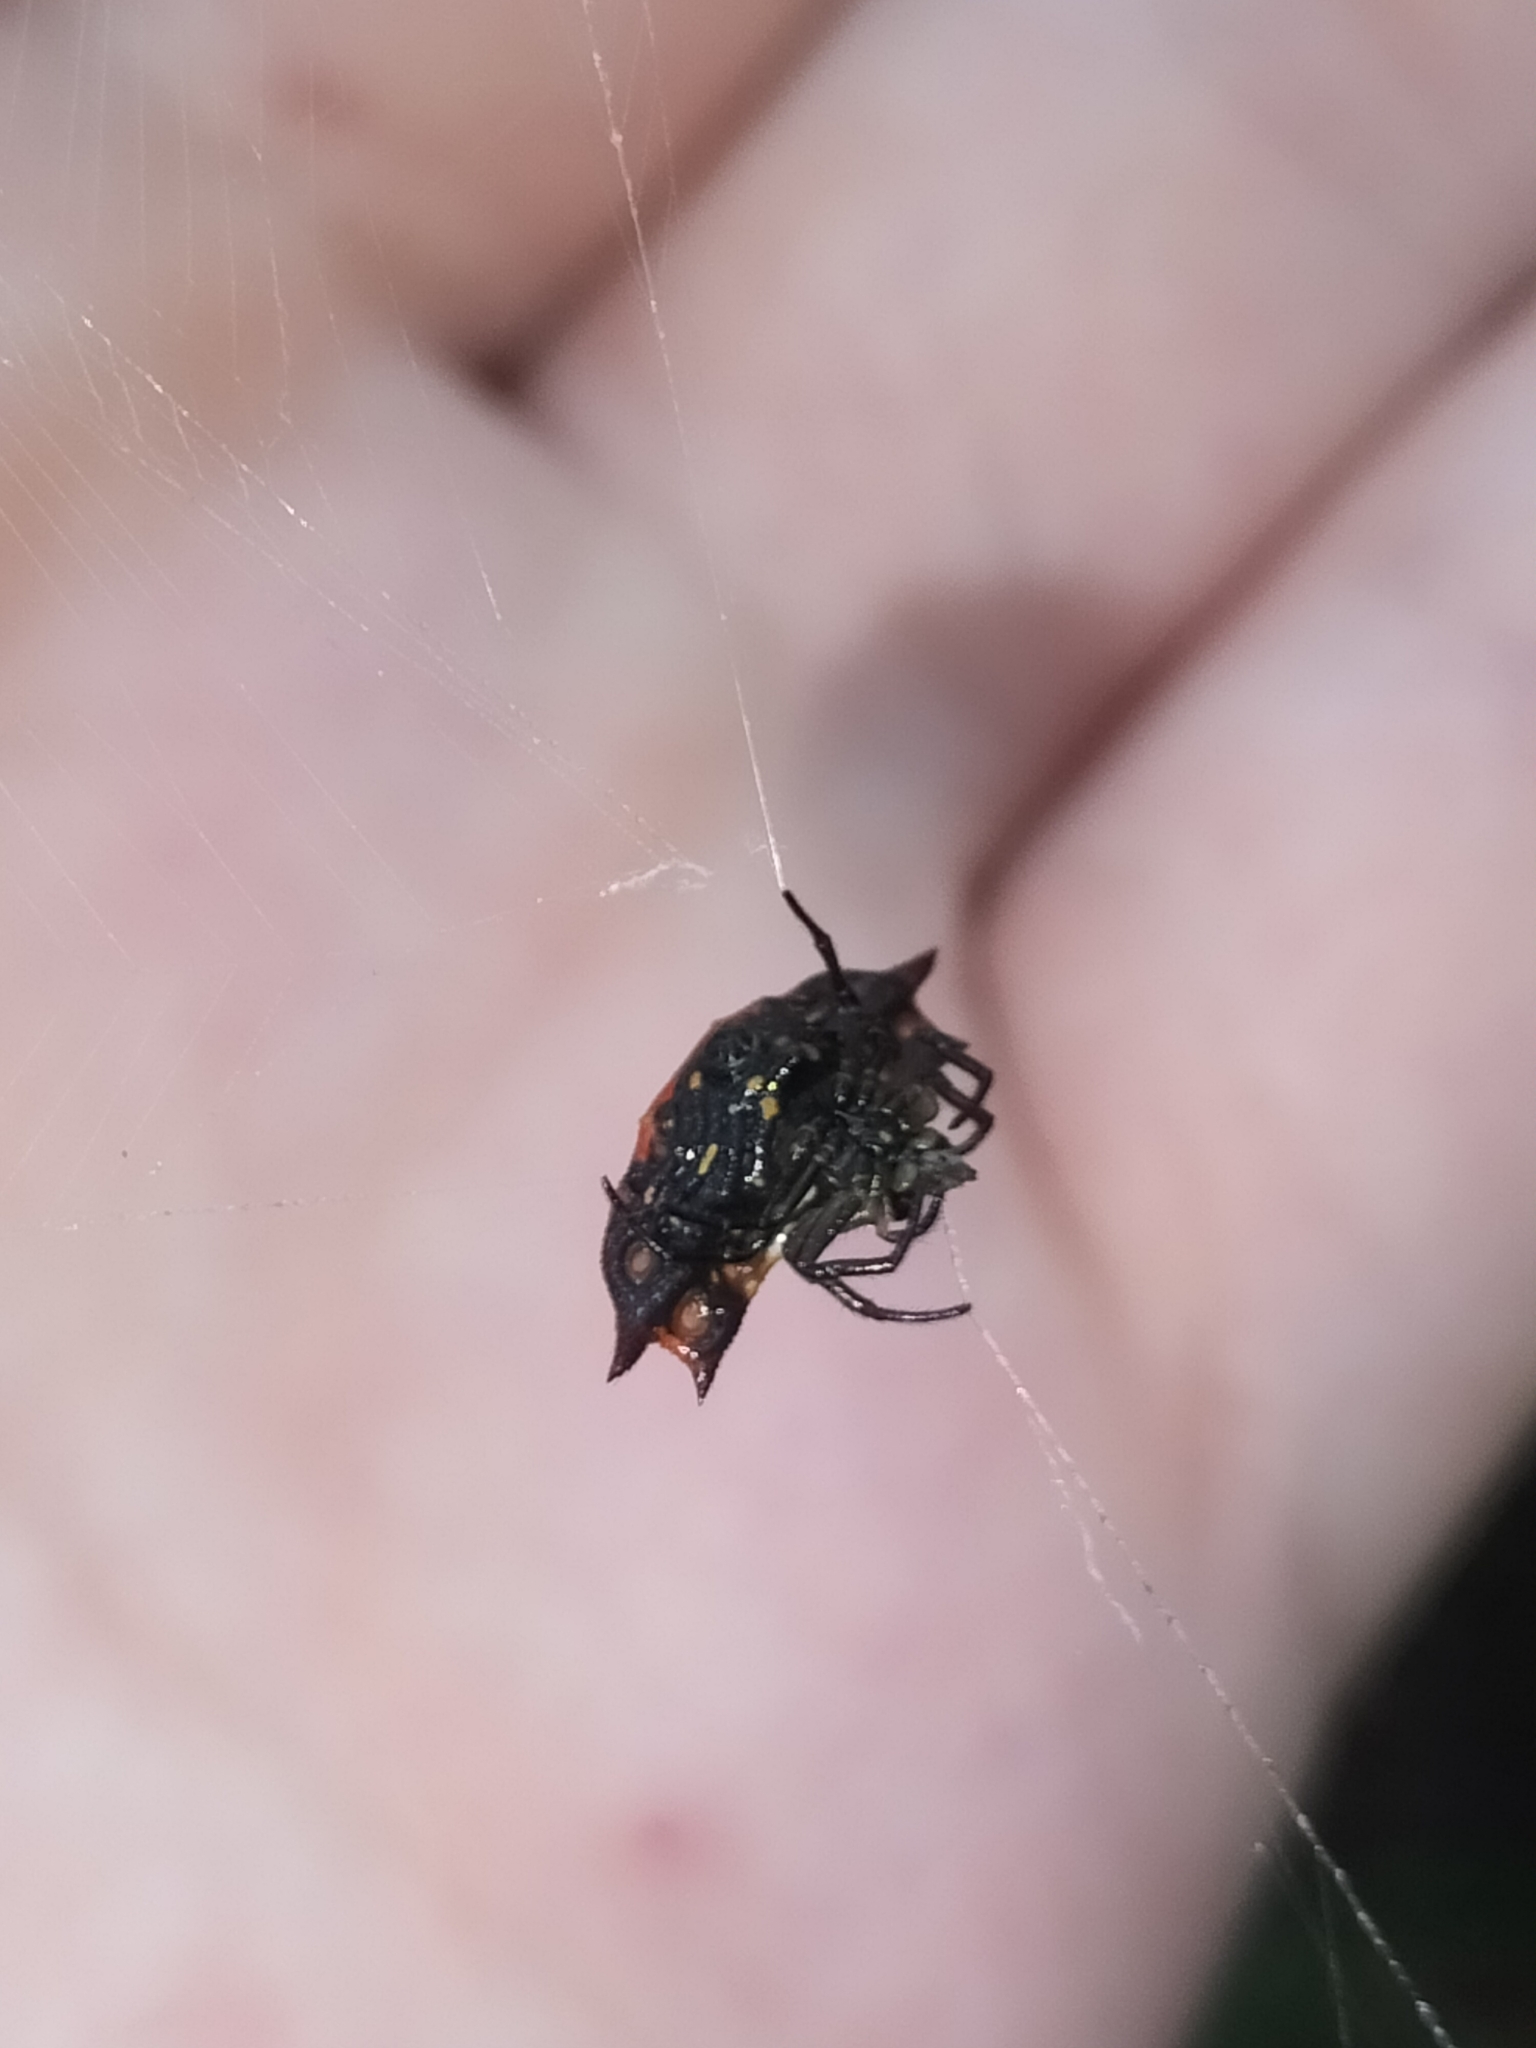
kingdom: Animalia
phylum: Arthropoda
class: Arachnida
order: Araneae
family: Araneidae
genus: Gasteracantha
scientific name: Gasteracantha quadrispinosa
